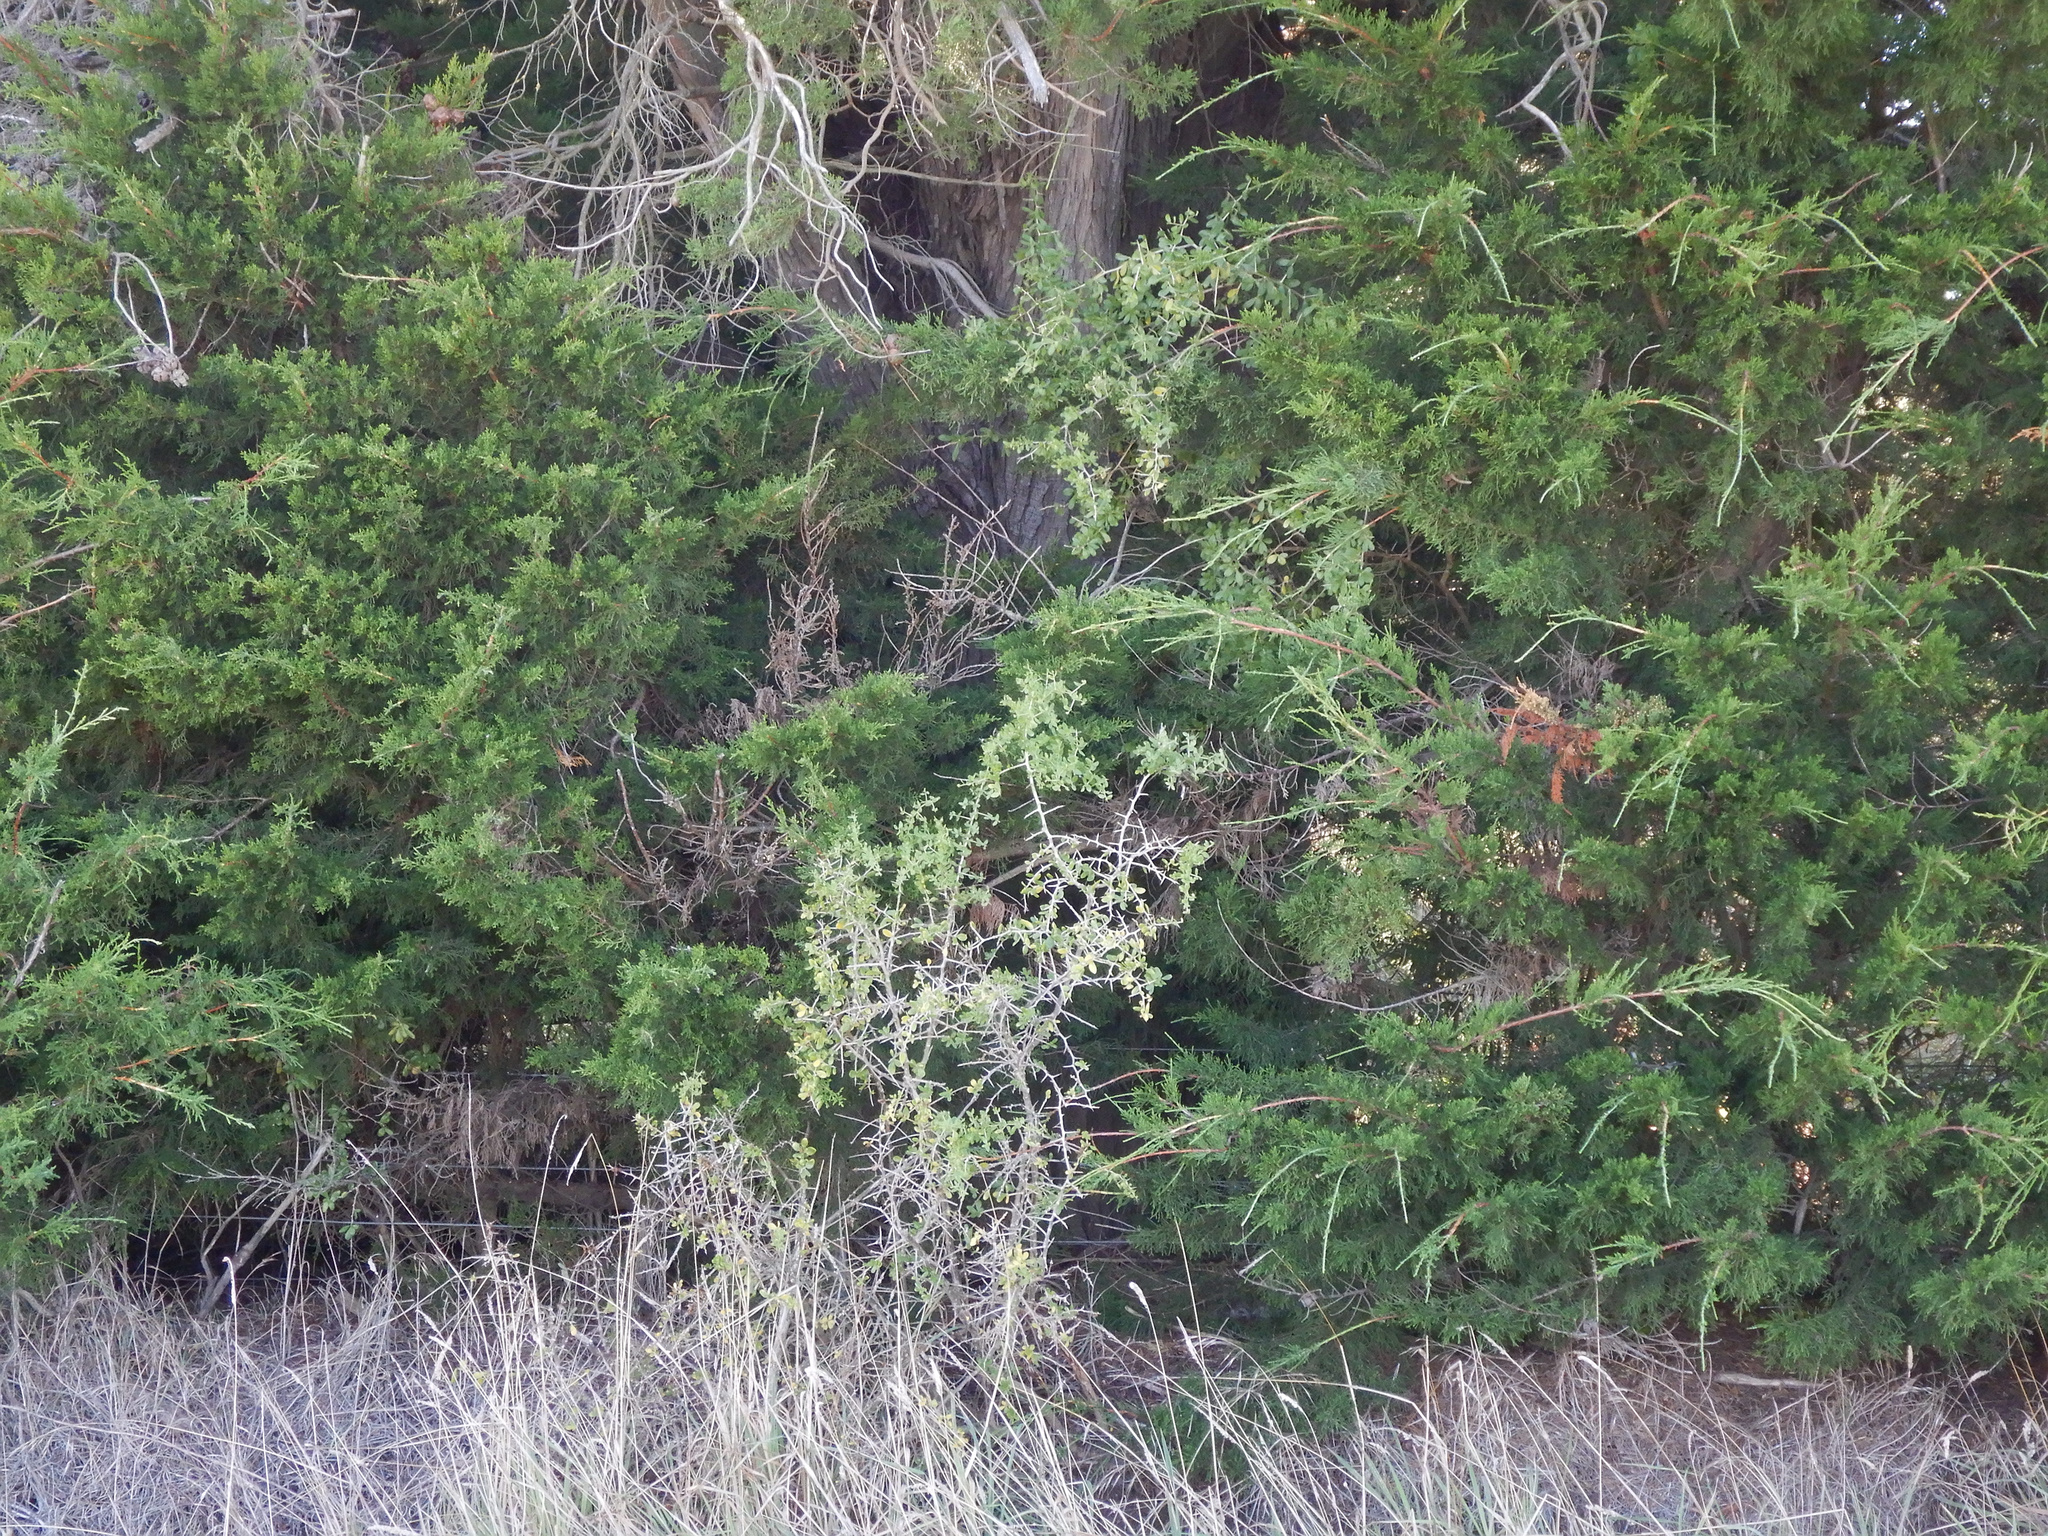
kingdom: Plantae
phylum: Tracheophyta
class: Magnoliopsida
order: Solanales
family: Solanaceae
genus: Lycium
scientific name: Lycium ferocissimum
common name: African boxthorn
